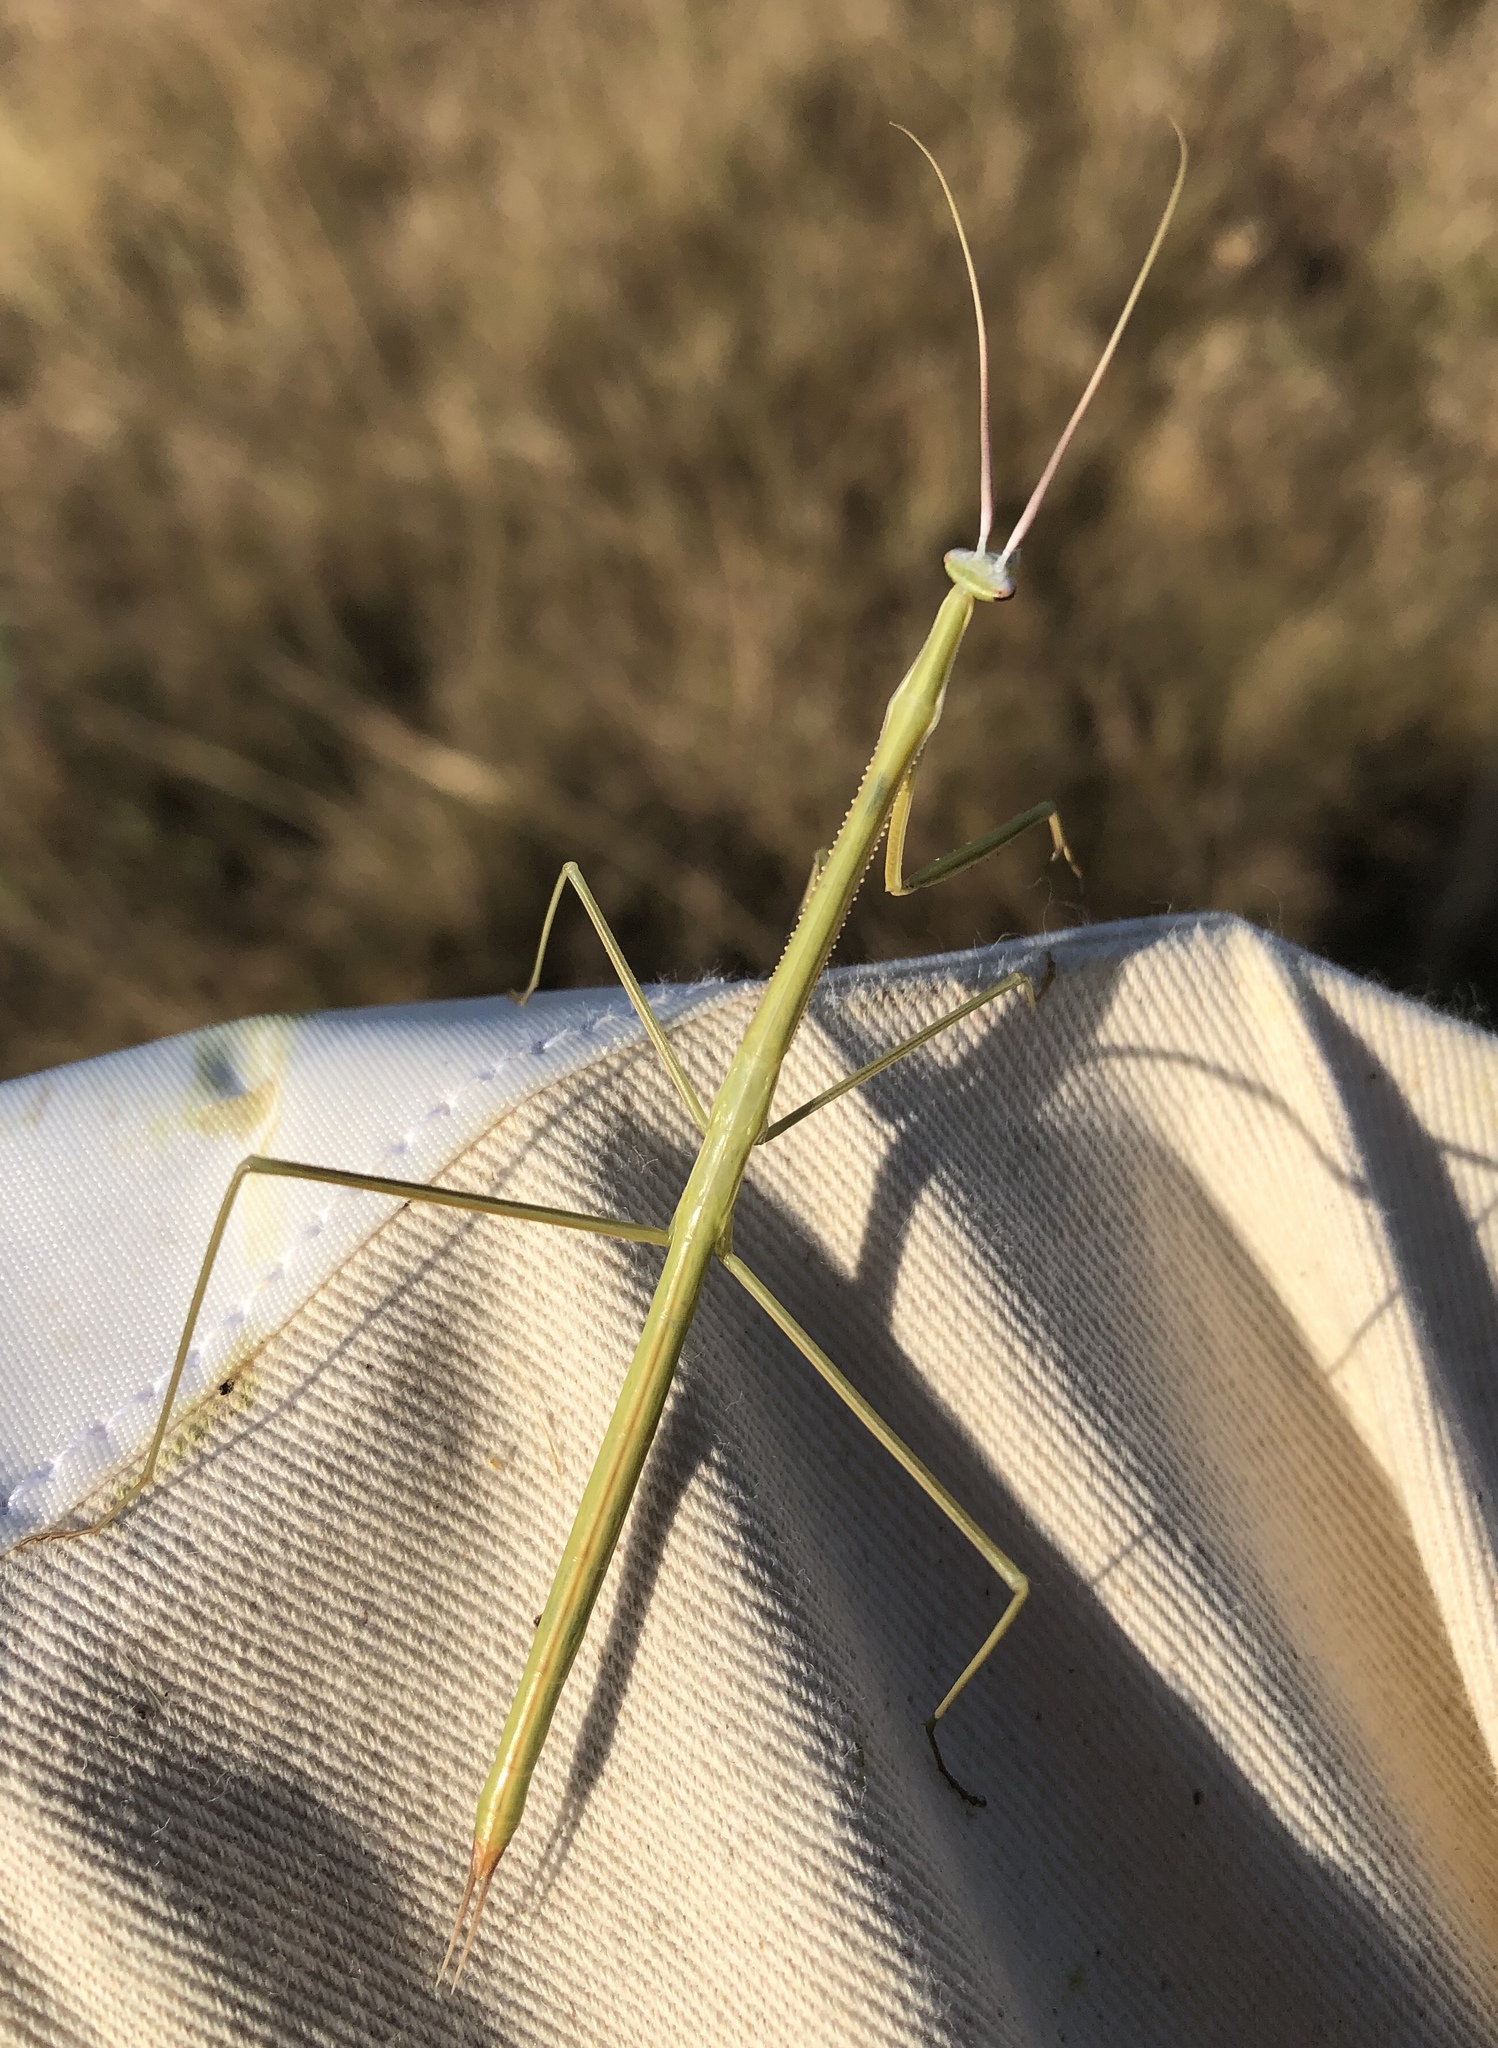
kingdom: Animalia
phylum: Arthropoda
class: Insecta
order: Mantodea
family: Coptopterygidae
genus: Brunneria
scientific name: Brunneria borealis
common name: Mantis
